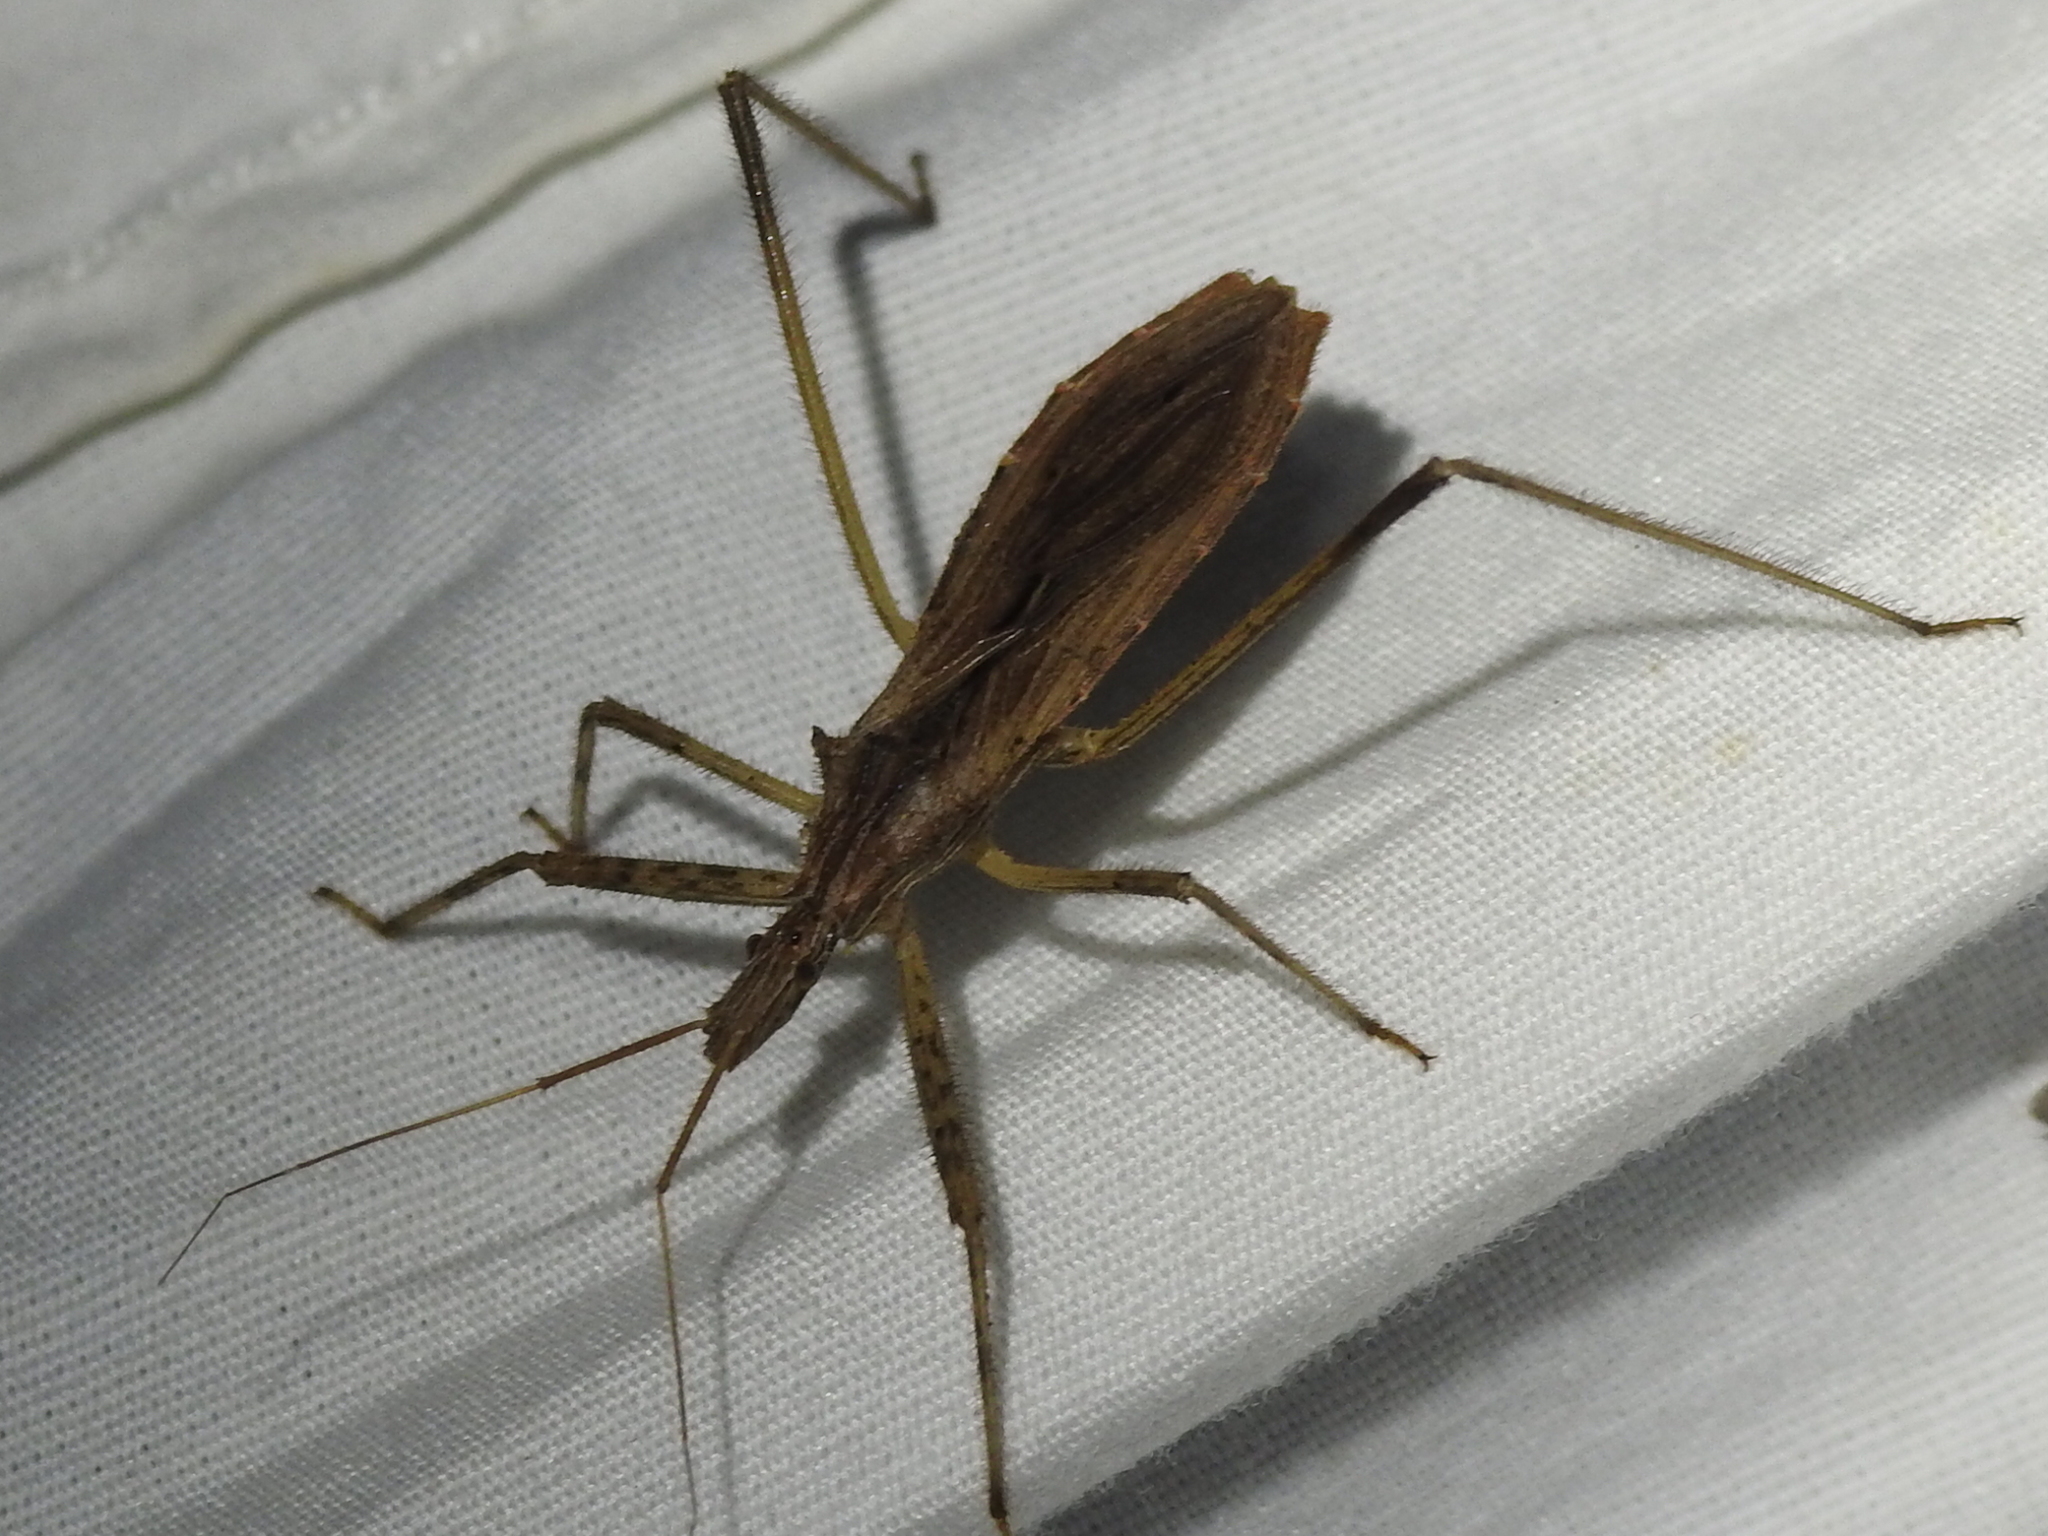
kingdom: Animalia
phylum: Arthropoda
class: Insecta
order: Hemiptera
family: Reduviidae
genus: Stenopoda
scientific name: Stenopoda spinulosa
